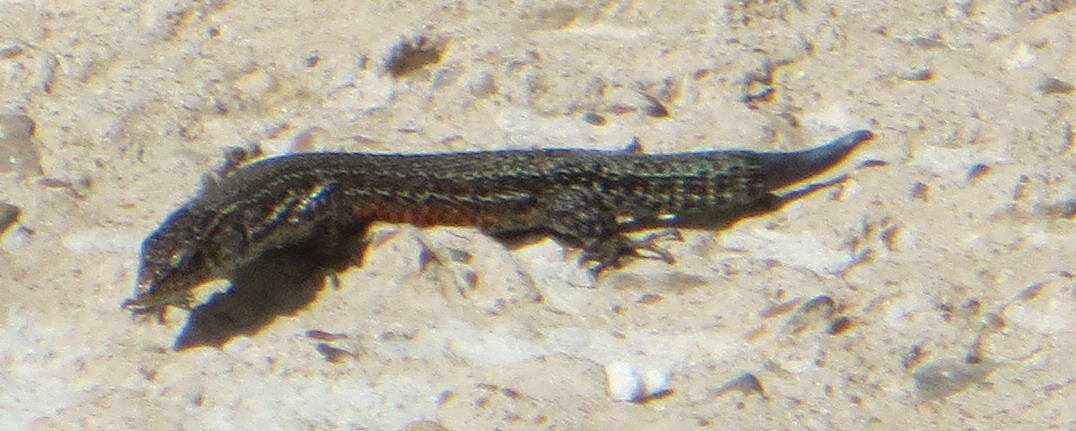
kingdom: Animalia
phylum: Chordata
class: Squamata
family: Lacertidae
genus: Tropidosaura
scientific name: Tropidosaura gularis
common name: Cape mountain lizard
